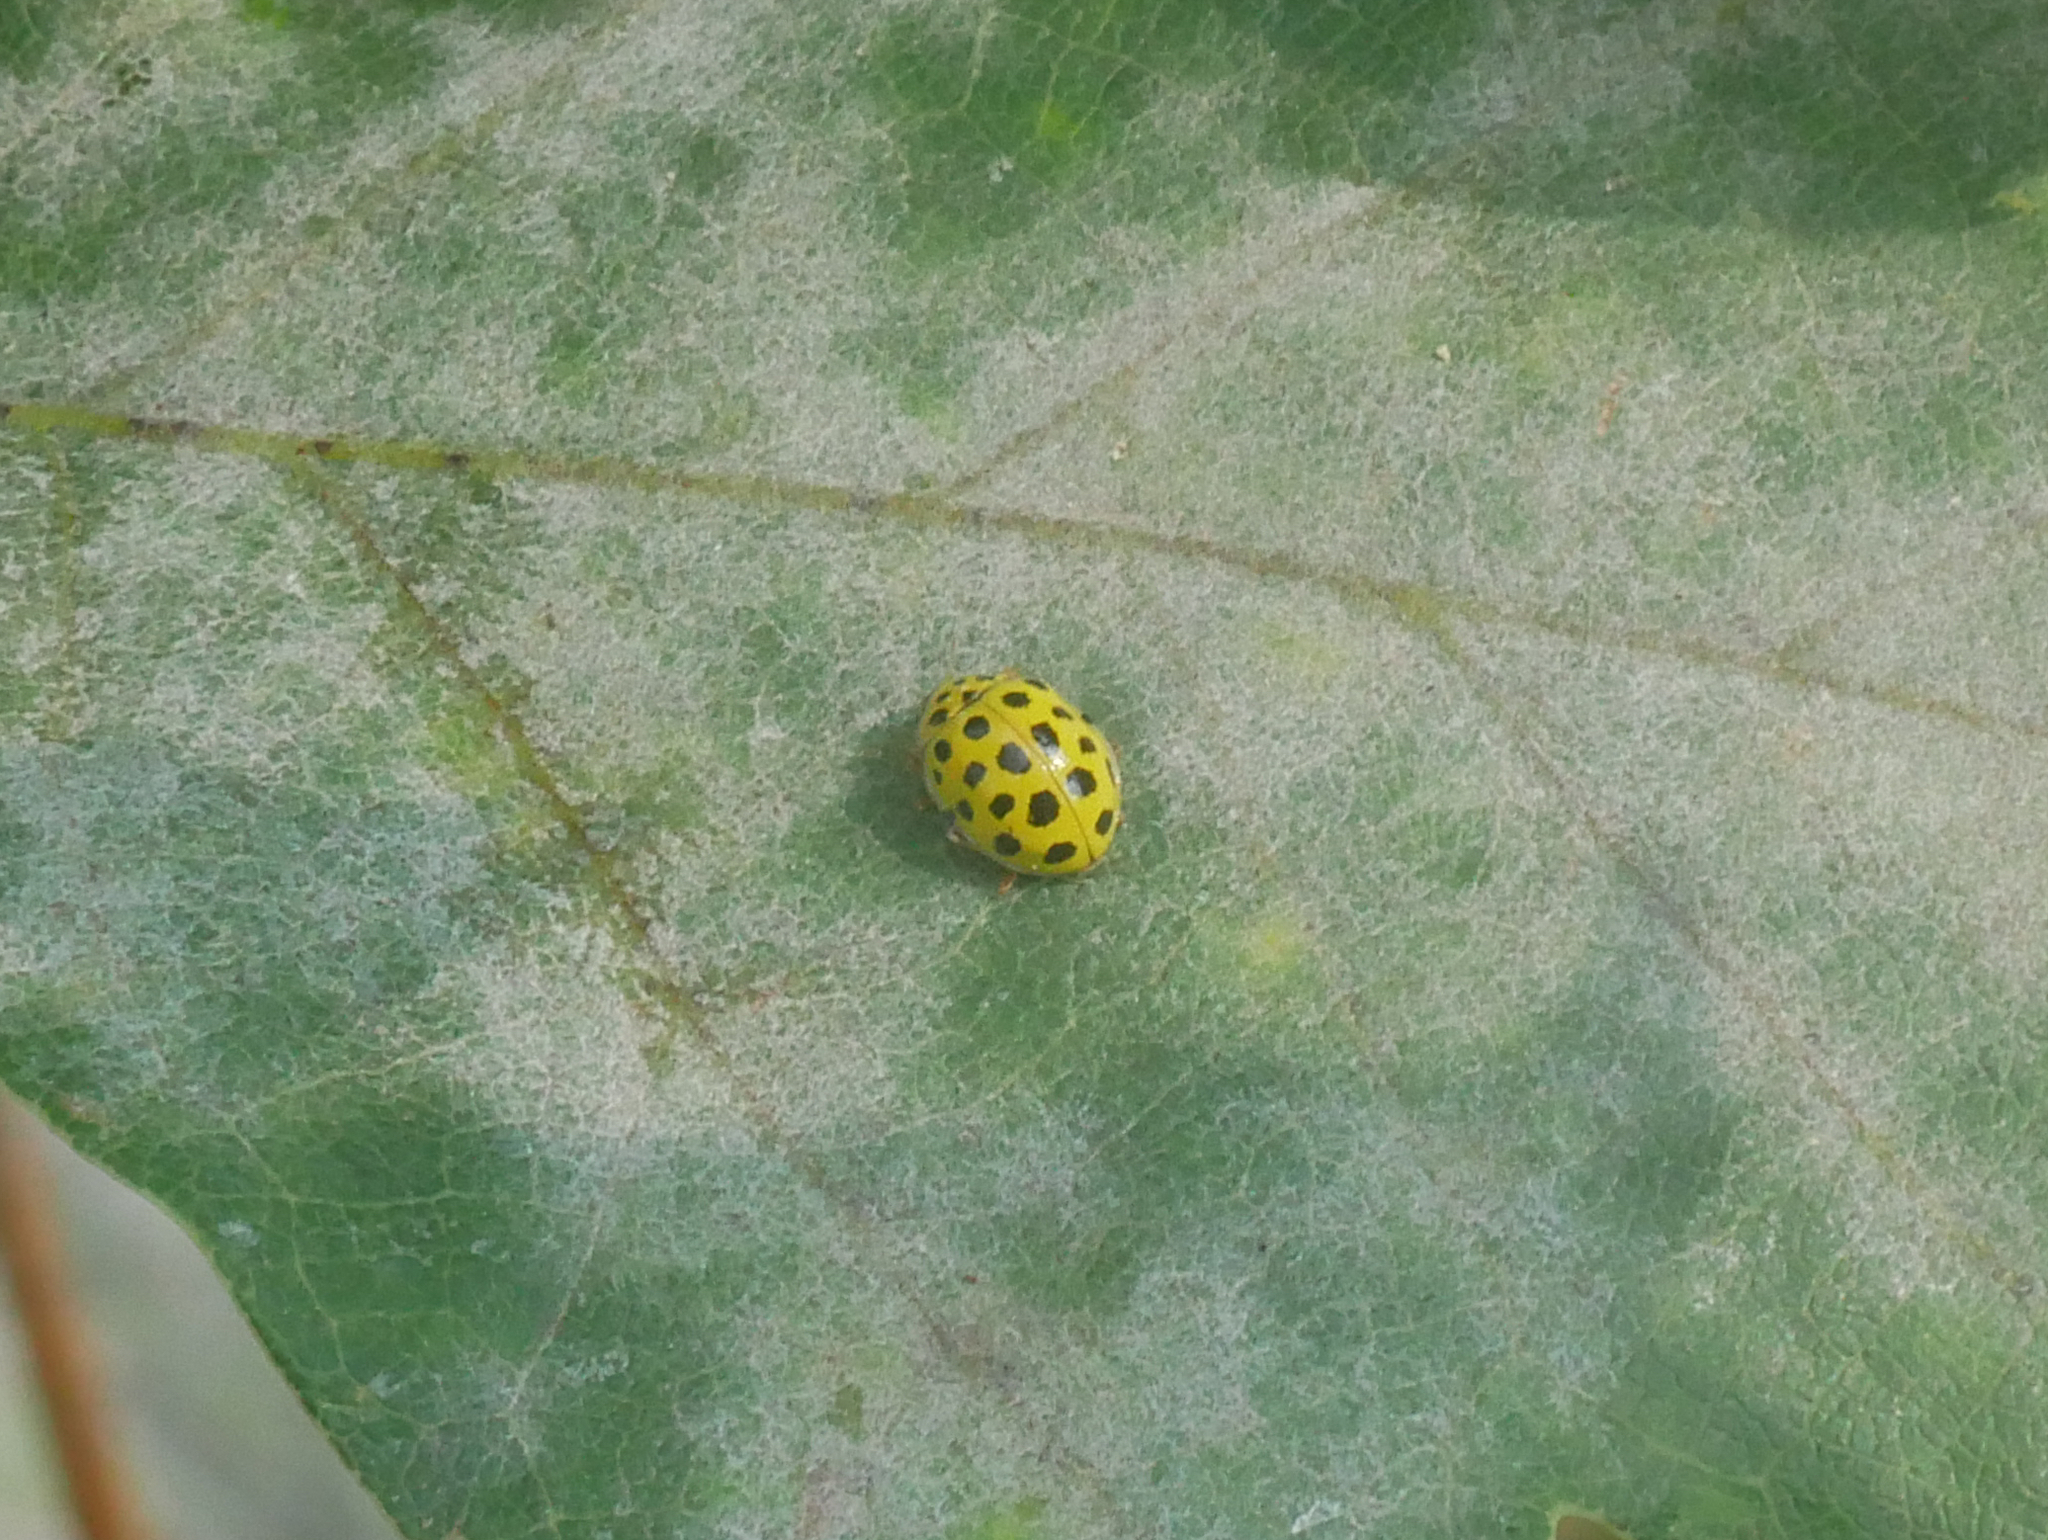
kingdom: Animalia
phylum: Arthropoda
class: Insecta
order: Coleoptera
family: Coccinellidae
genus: Psyllobora
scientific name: Psyllobora vigintiduopunctata
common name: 22-spot ladybird
